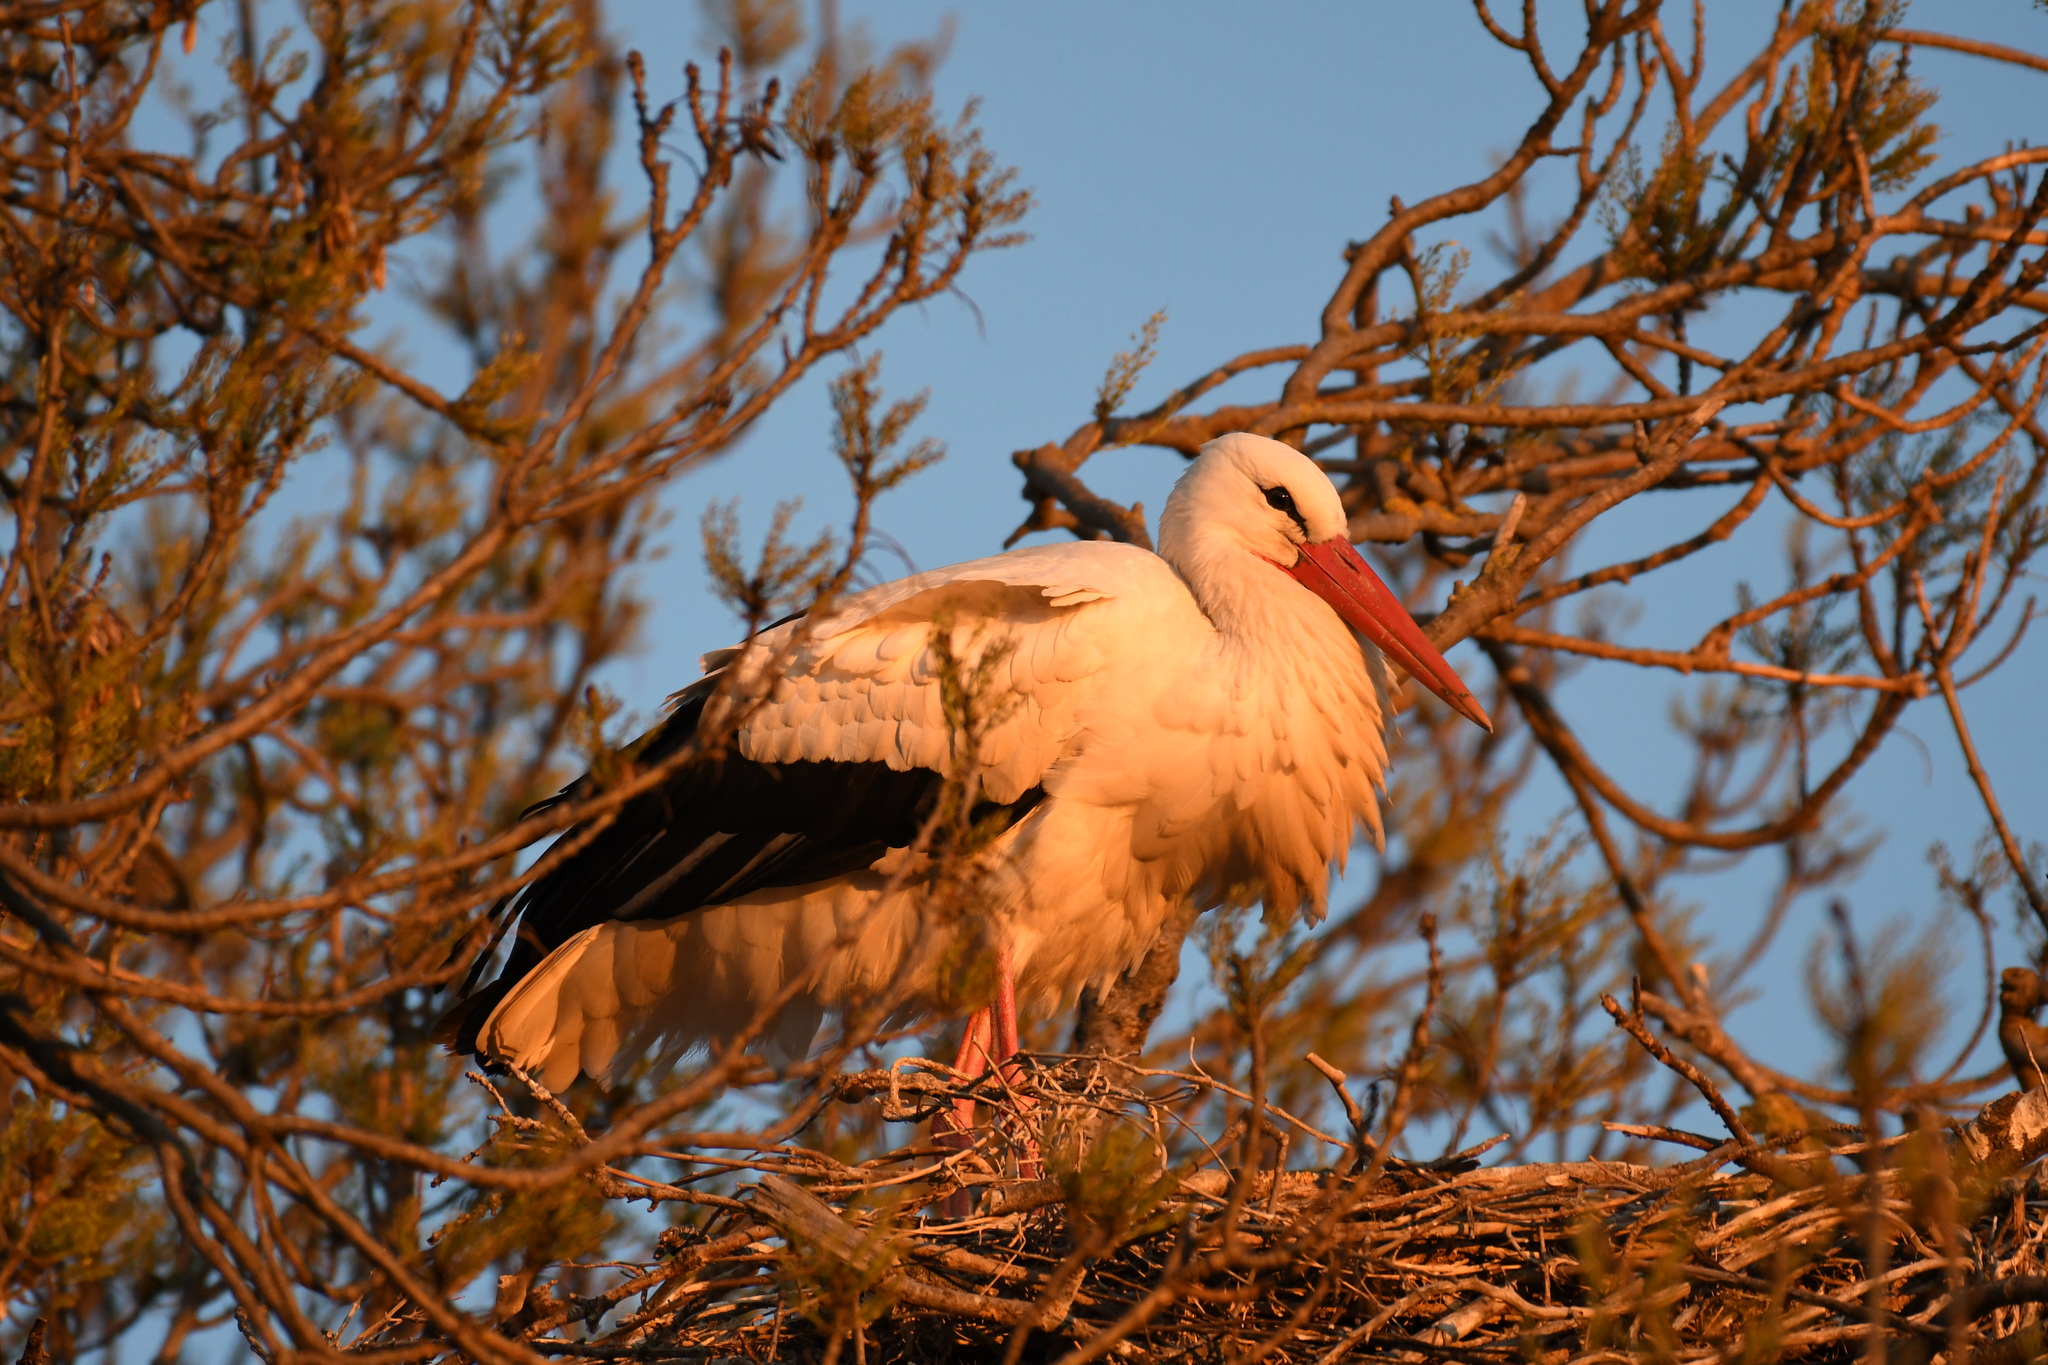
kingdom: Animalia
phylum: Chordata
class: Aves
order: Ciconiiformes
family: Ciconiidae
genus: Ciconia
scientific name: Ciconia ciconia
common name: White stork
